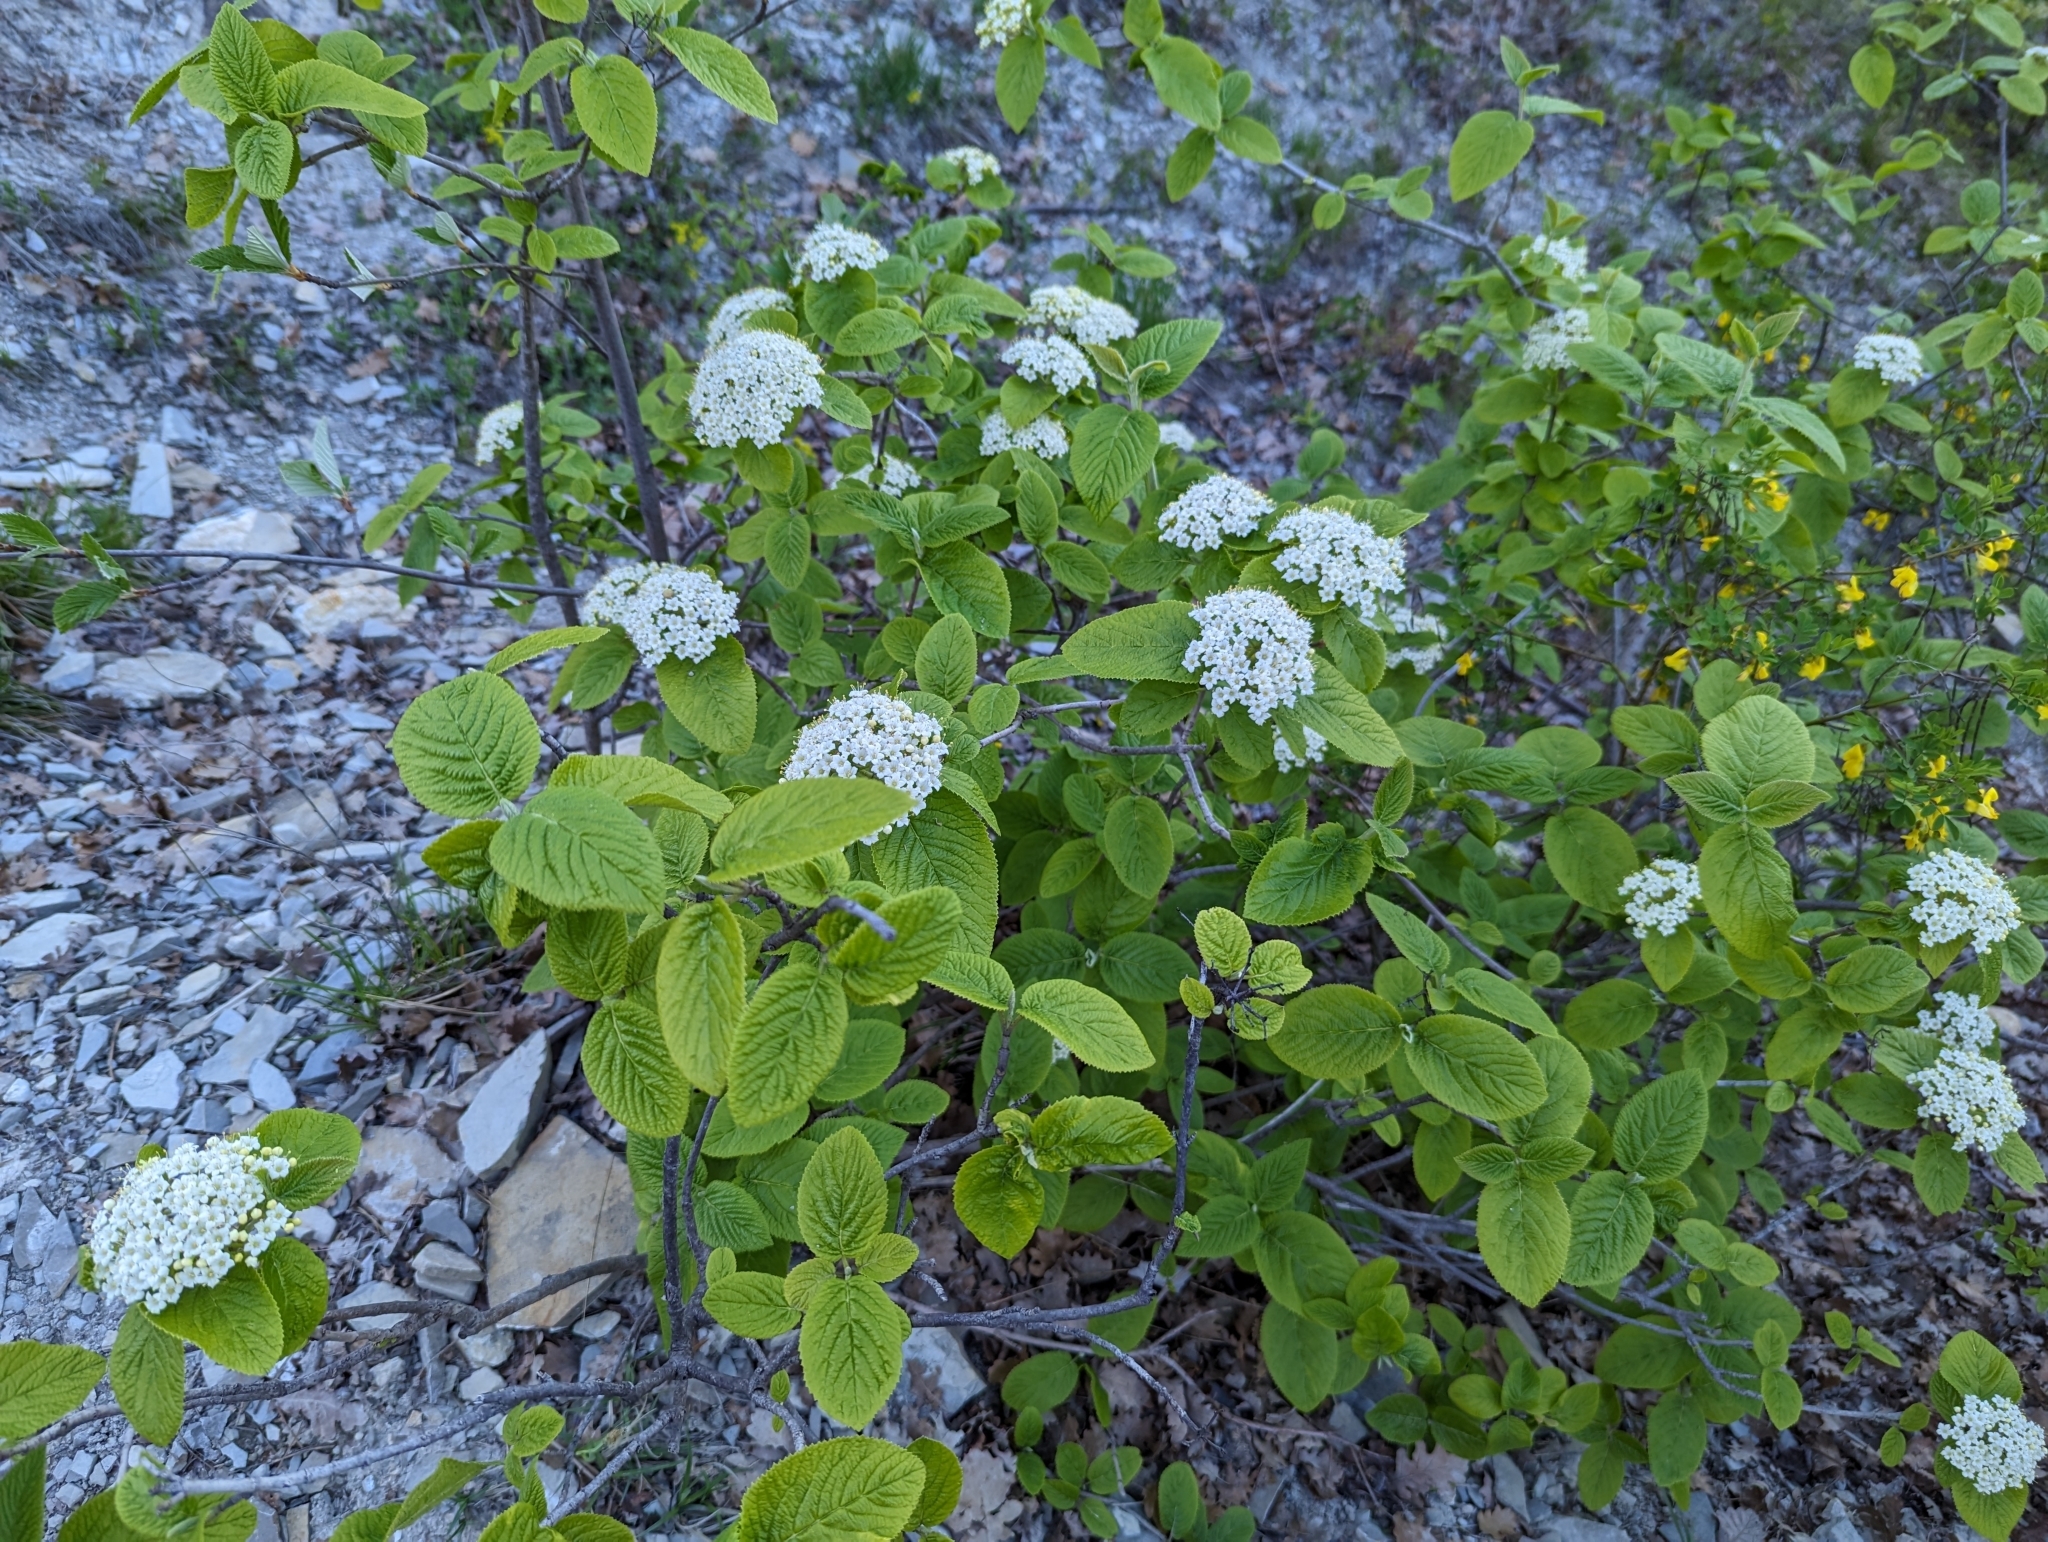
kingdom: Plantae
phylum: Tracheophyta
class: Magnoliopsida
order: Dipsacales
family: Viburnaceae
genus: Viburnum
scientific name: Viburnum lantana
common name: Wayfaring tree
